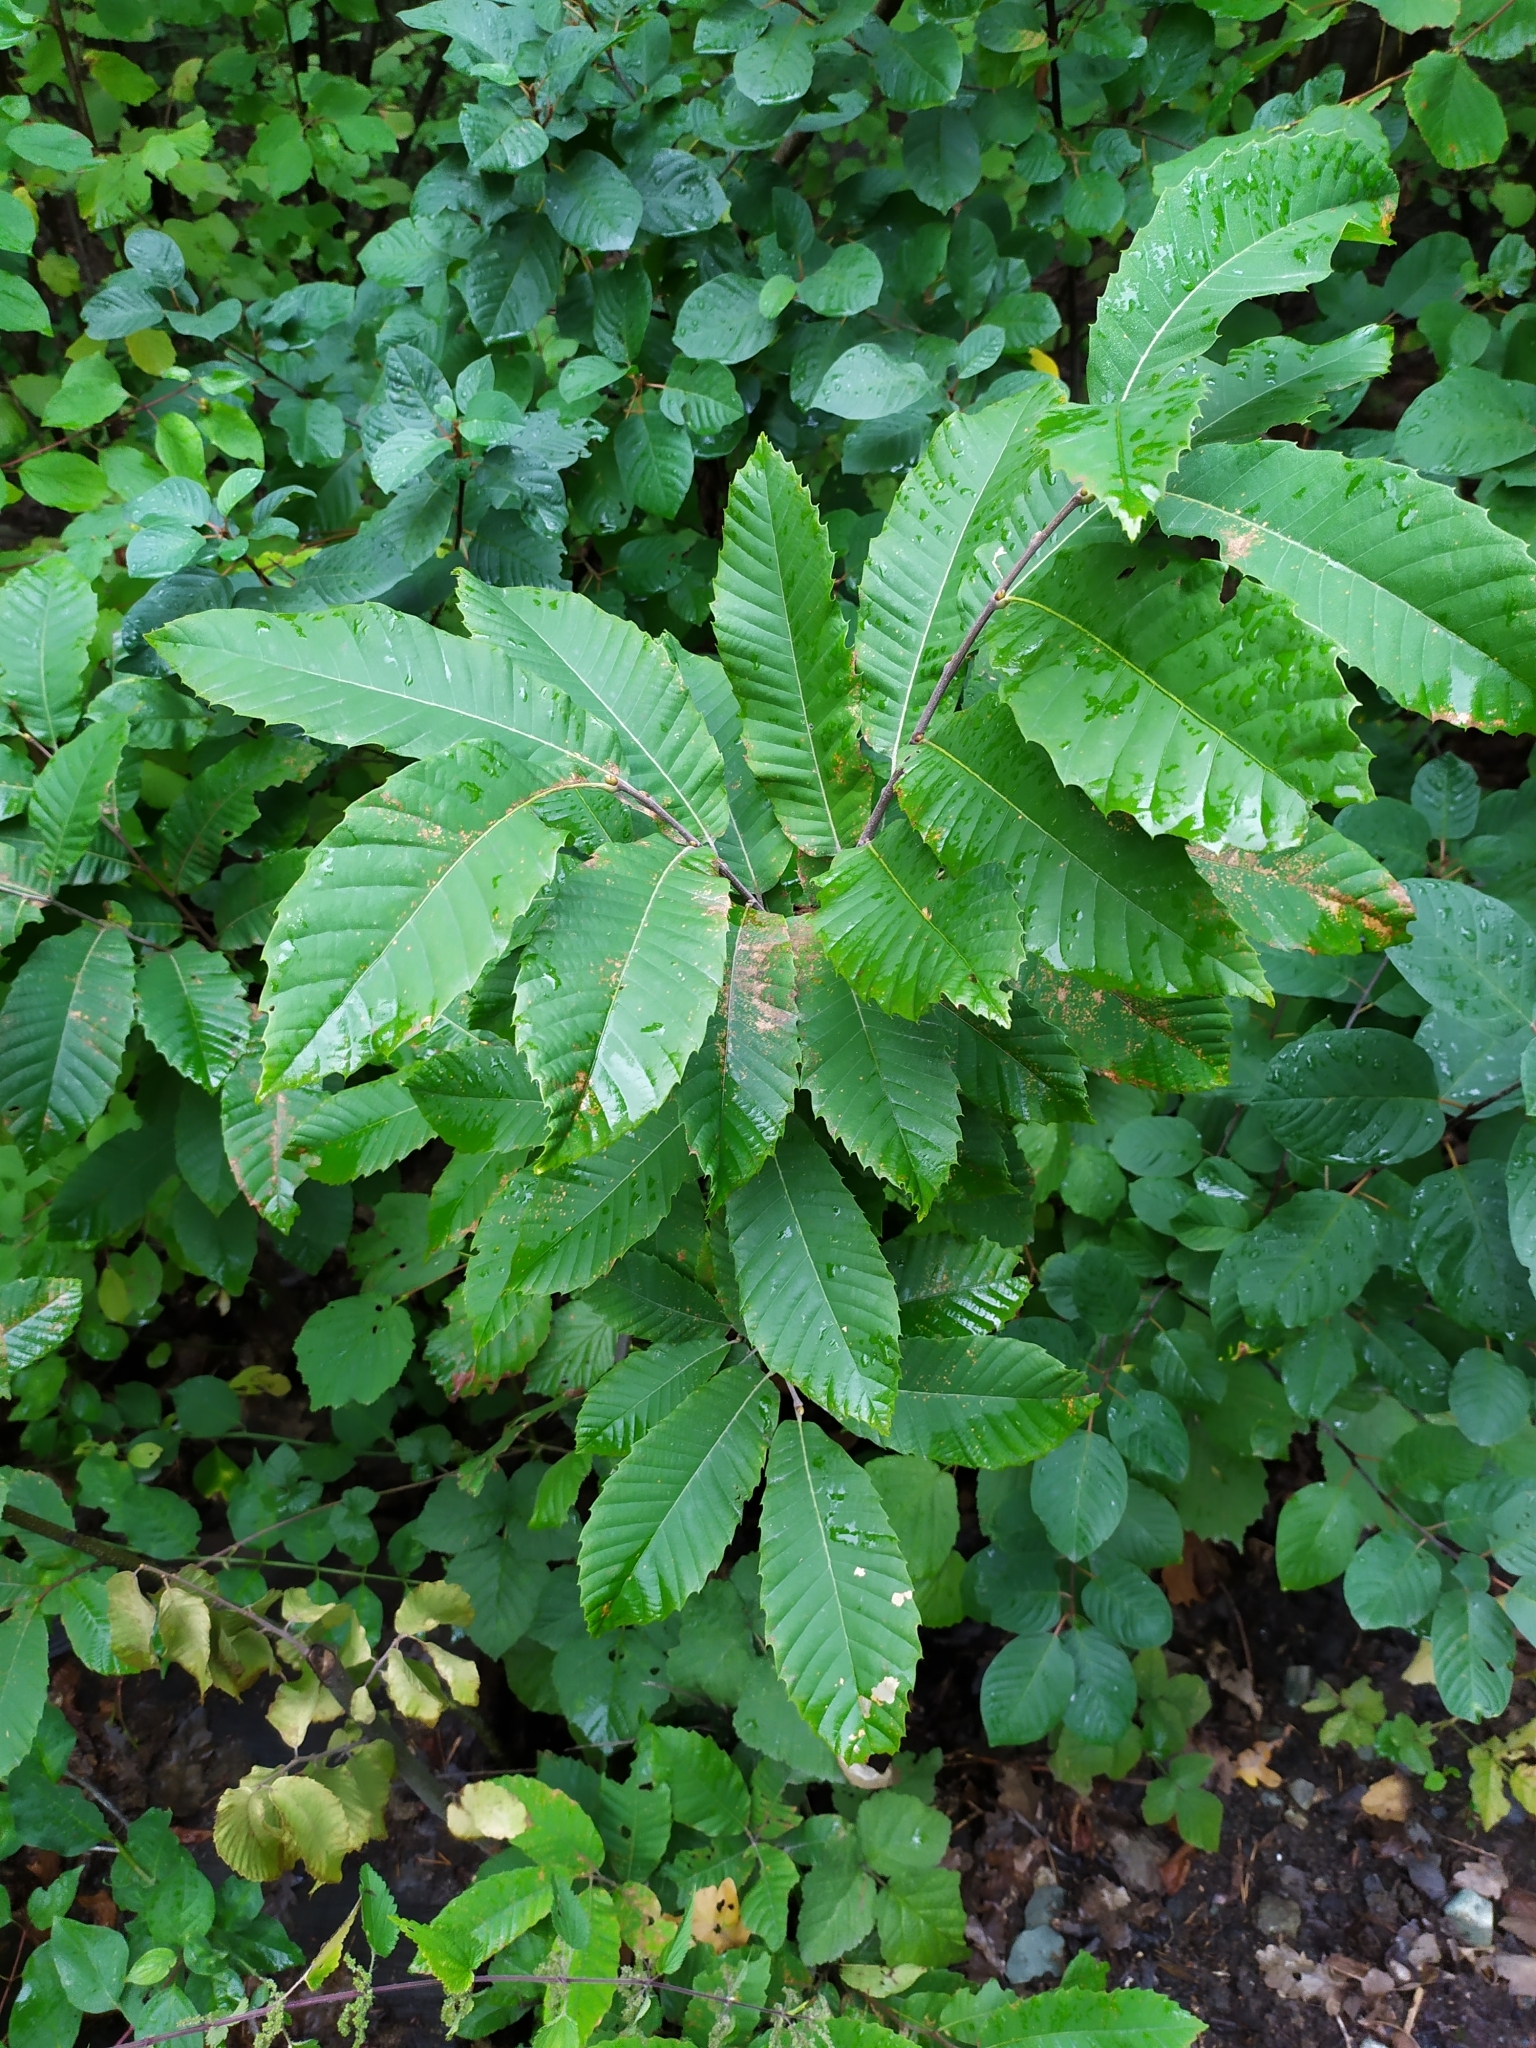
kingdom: Plantae
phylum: Tracheophyta
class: Magnoliopsida
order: Fagales
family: Fagaceae
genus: Castanea
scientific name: Castanea sativa
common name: Sweet chestnut
